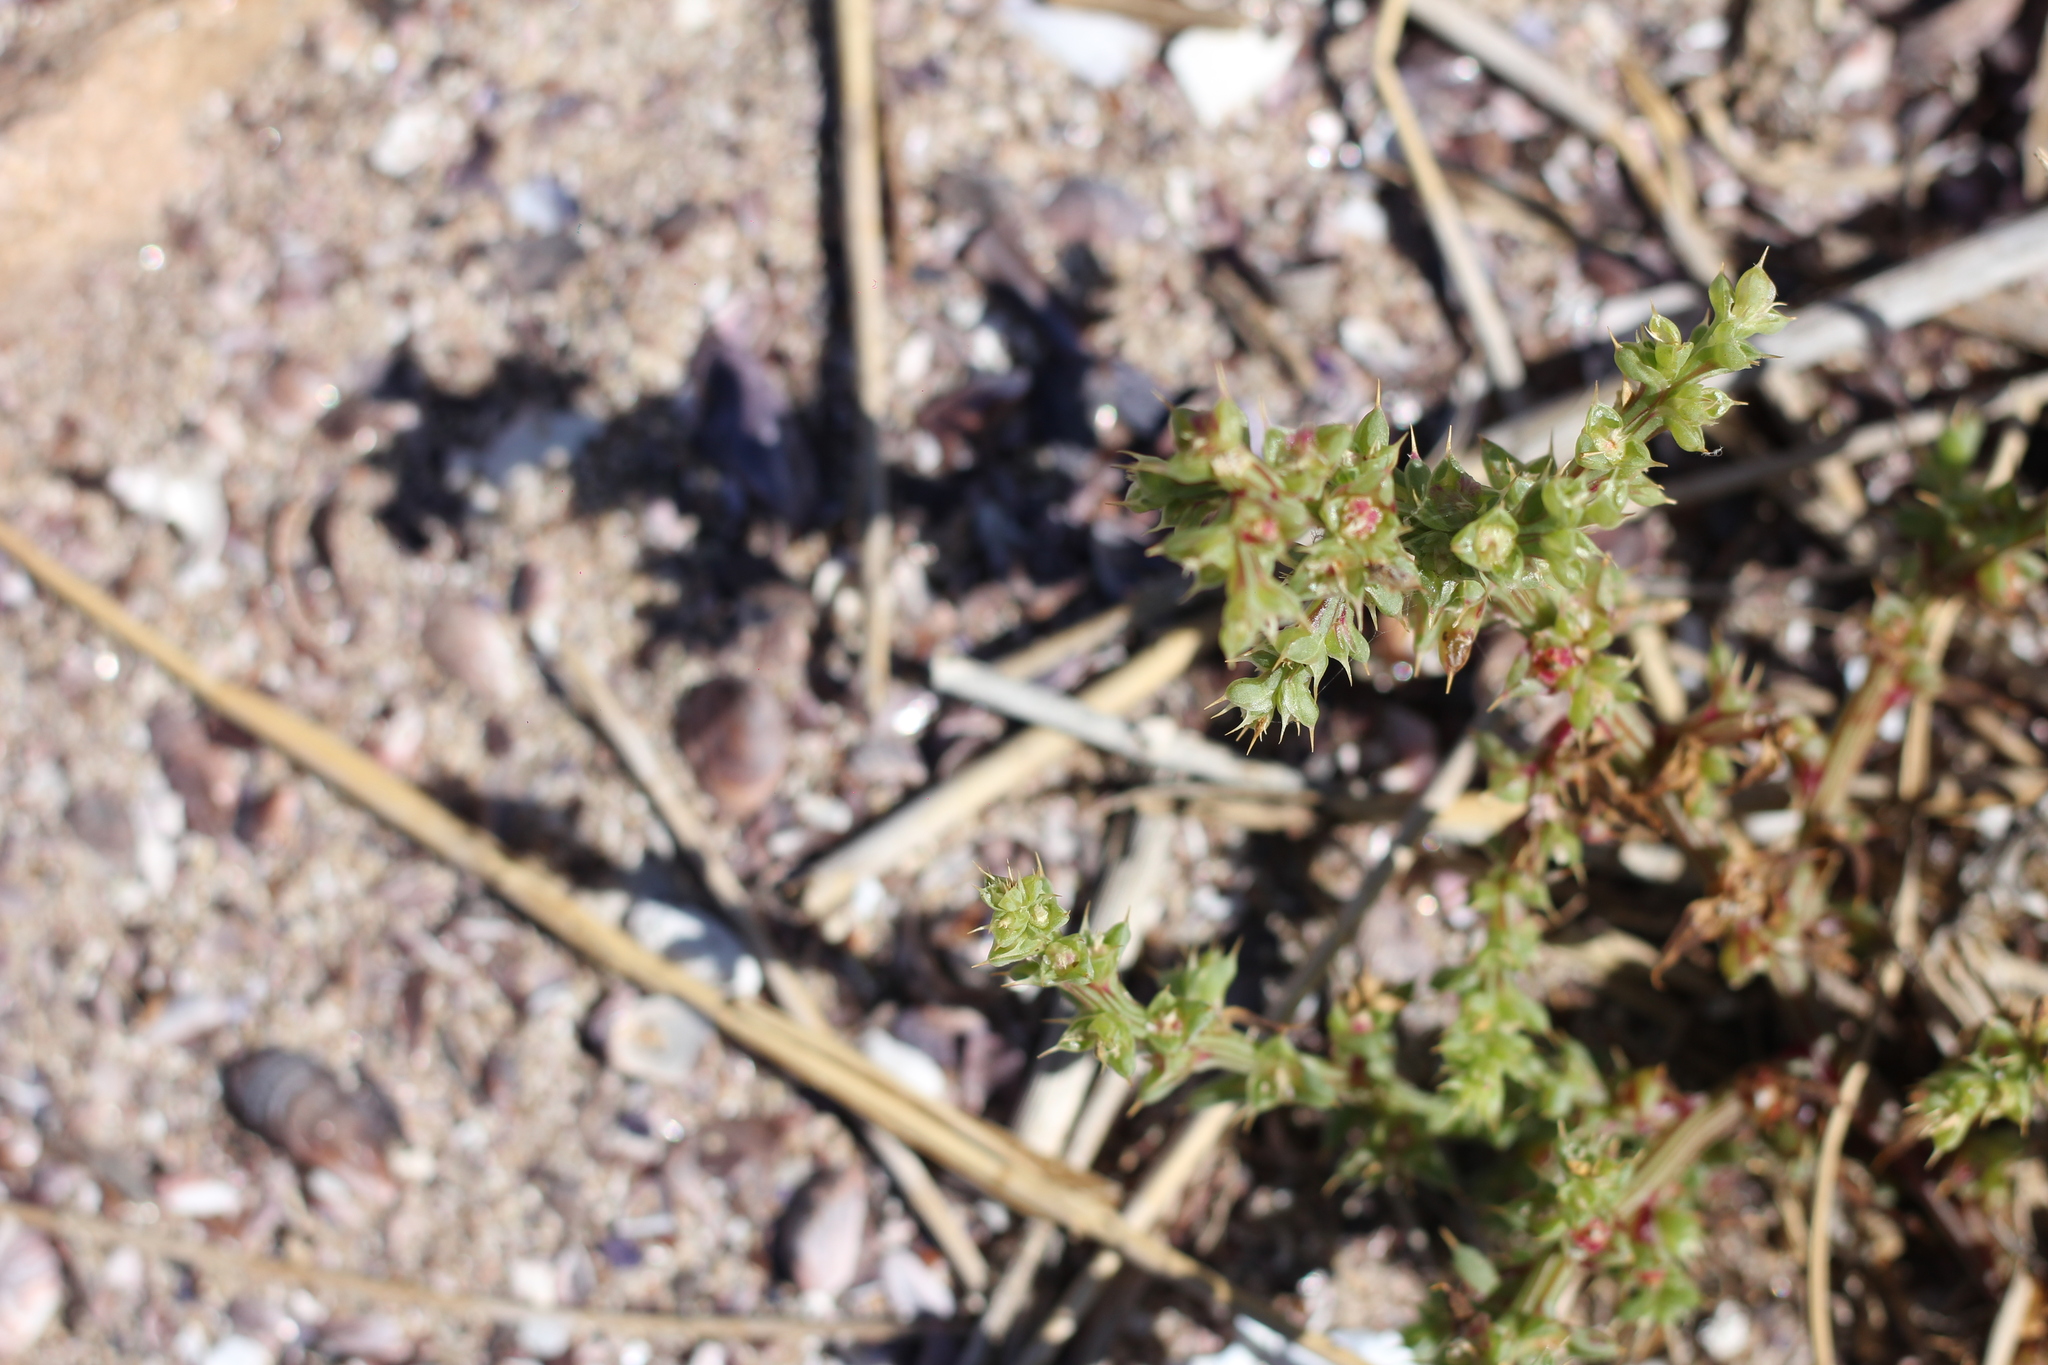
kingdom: Plantae
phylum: Tracheophyta
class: Magnoliopsida
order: Caryophyllales
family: Amaranthaceae
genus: Salsola
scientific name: Salsola kali
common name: Saltwort
